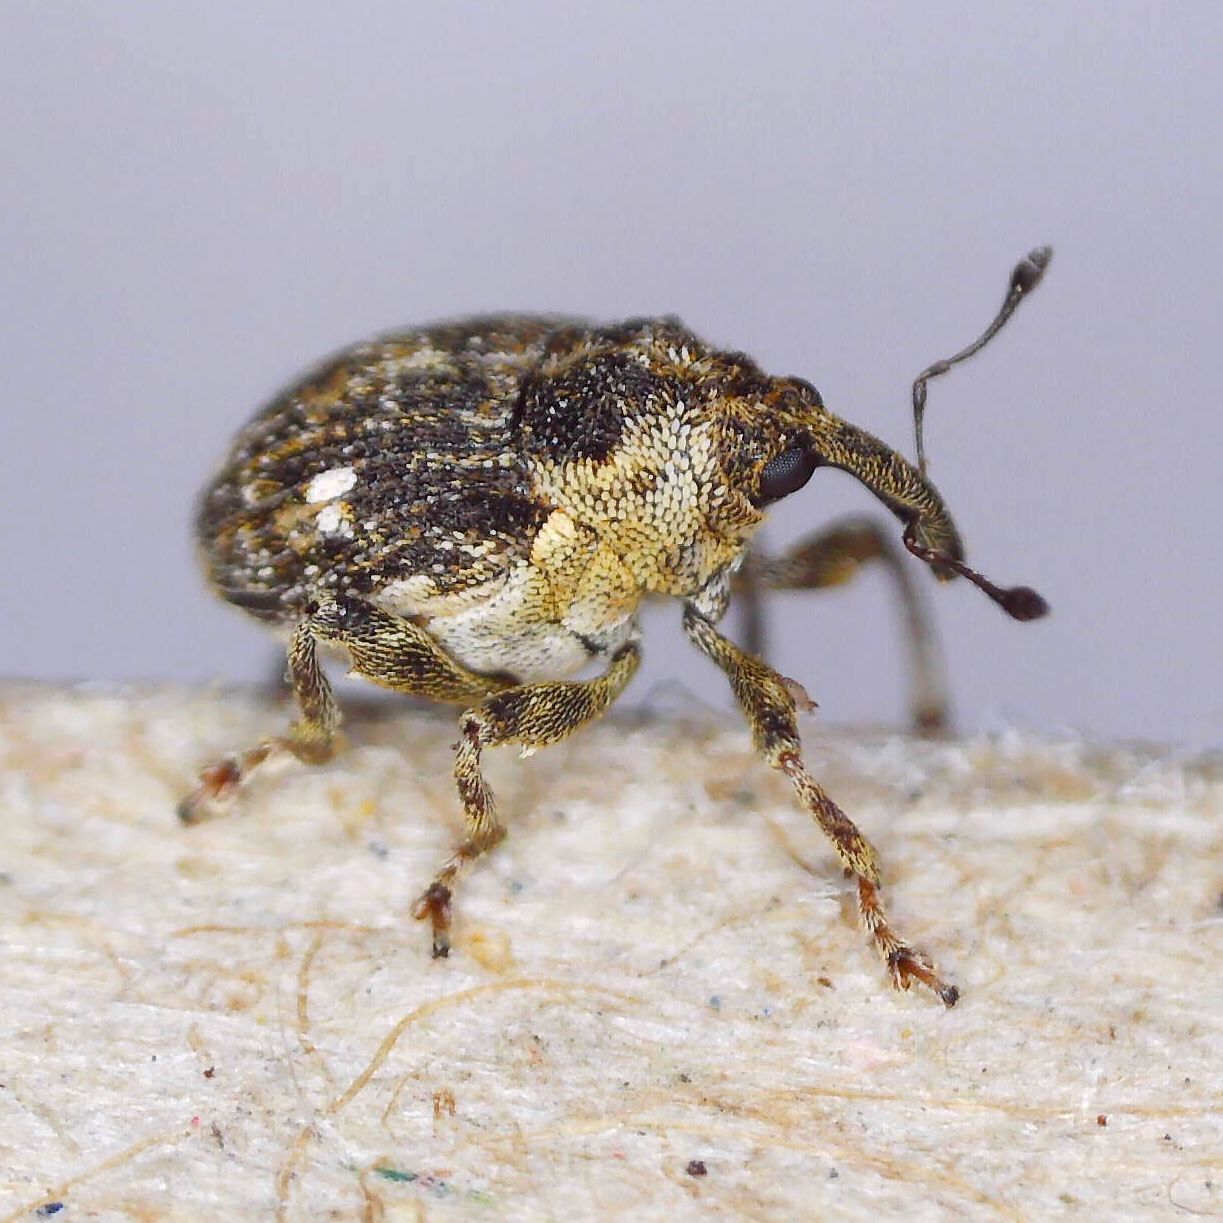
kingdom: Animalia
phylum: Arthropoda
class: Insecta
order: Coleoptera
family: Curculionidae
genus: Nedyus
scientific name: Nedyus quadrimaculatus
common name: Small nettle weevil
